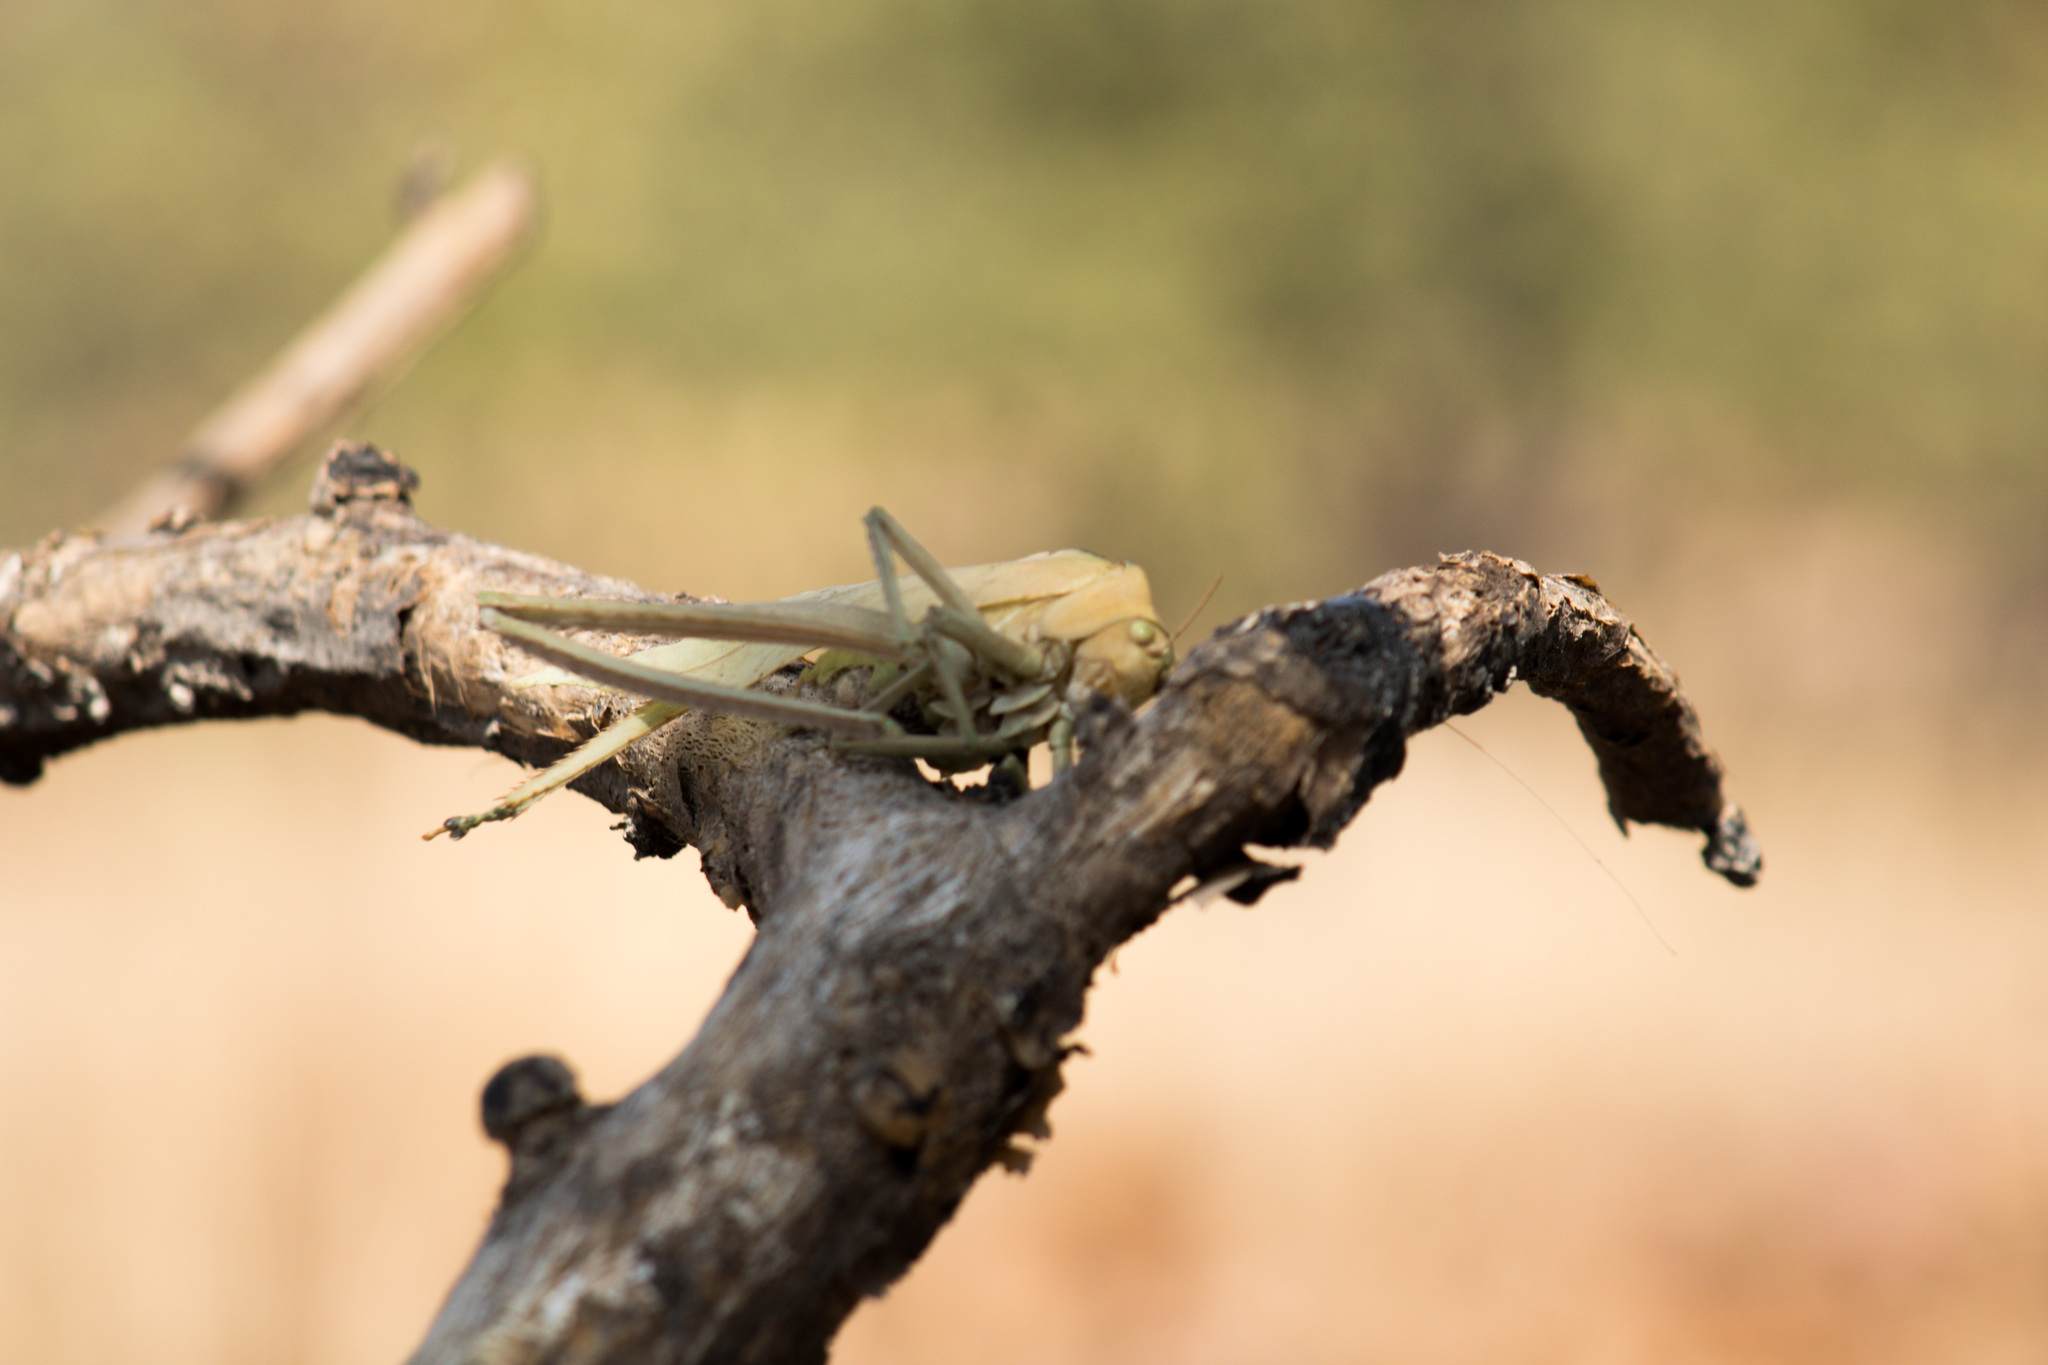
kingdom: Animalia
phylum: Arthropoda
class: Insecta
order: Orthoptera
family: Tettigoniidae
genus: Stilpnochlora
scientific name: Stilpnochlora azteca
